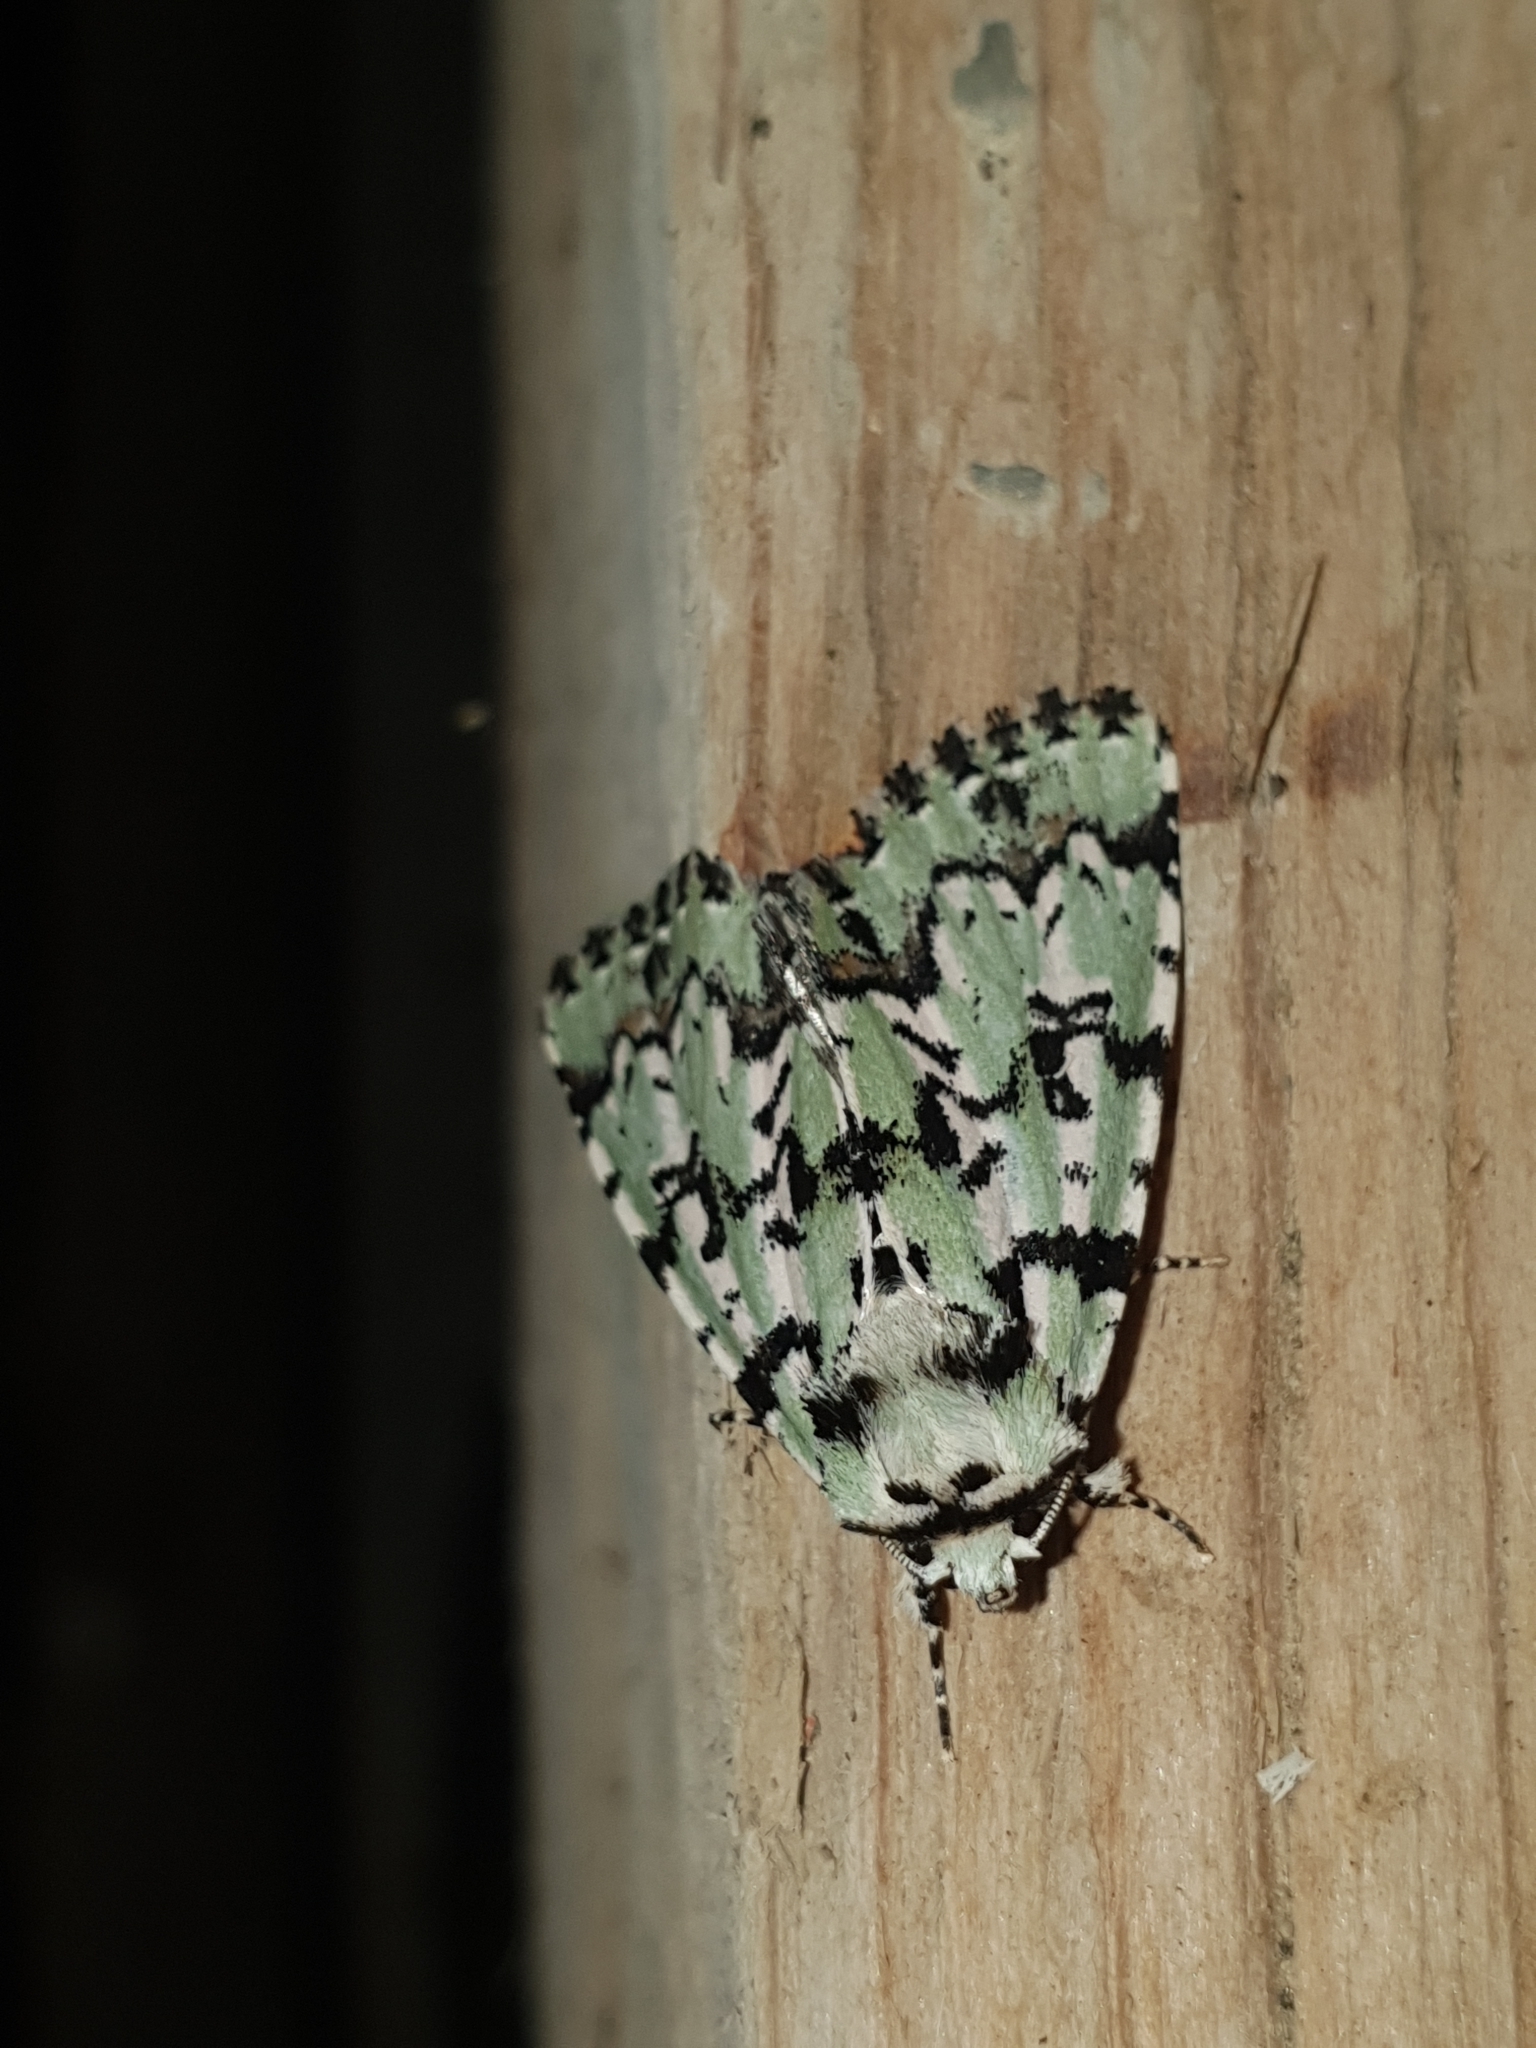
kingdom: Animalia
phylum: Arthropoda
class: Insecta
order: Lepidoptera
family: Noctuidae
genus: Moma
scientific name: Moma alpium
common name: Scarce merveille du jour
